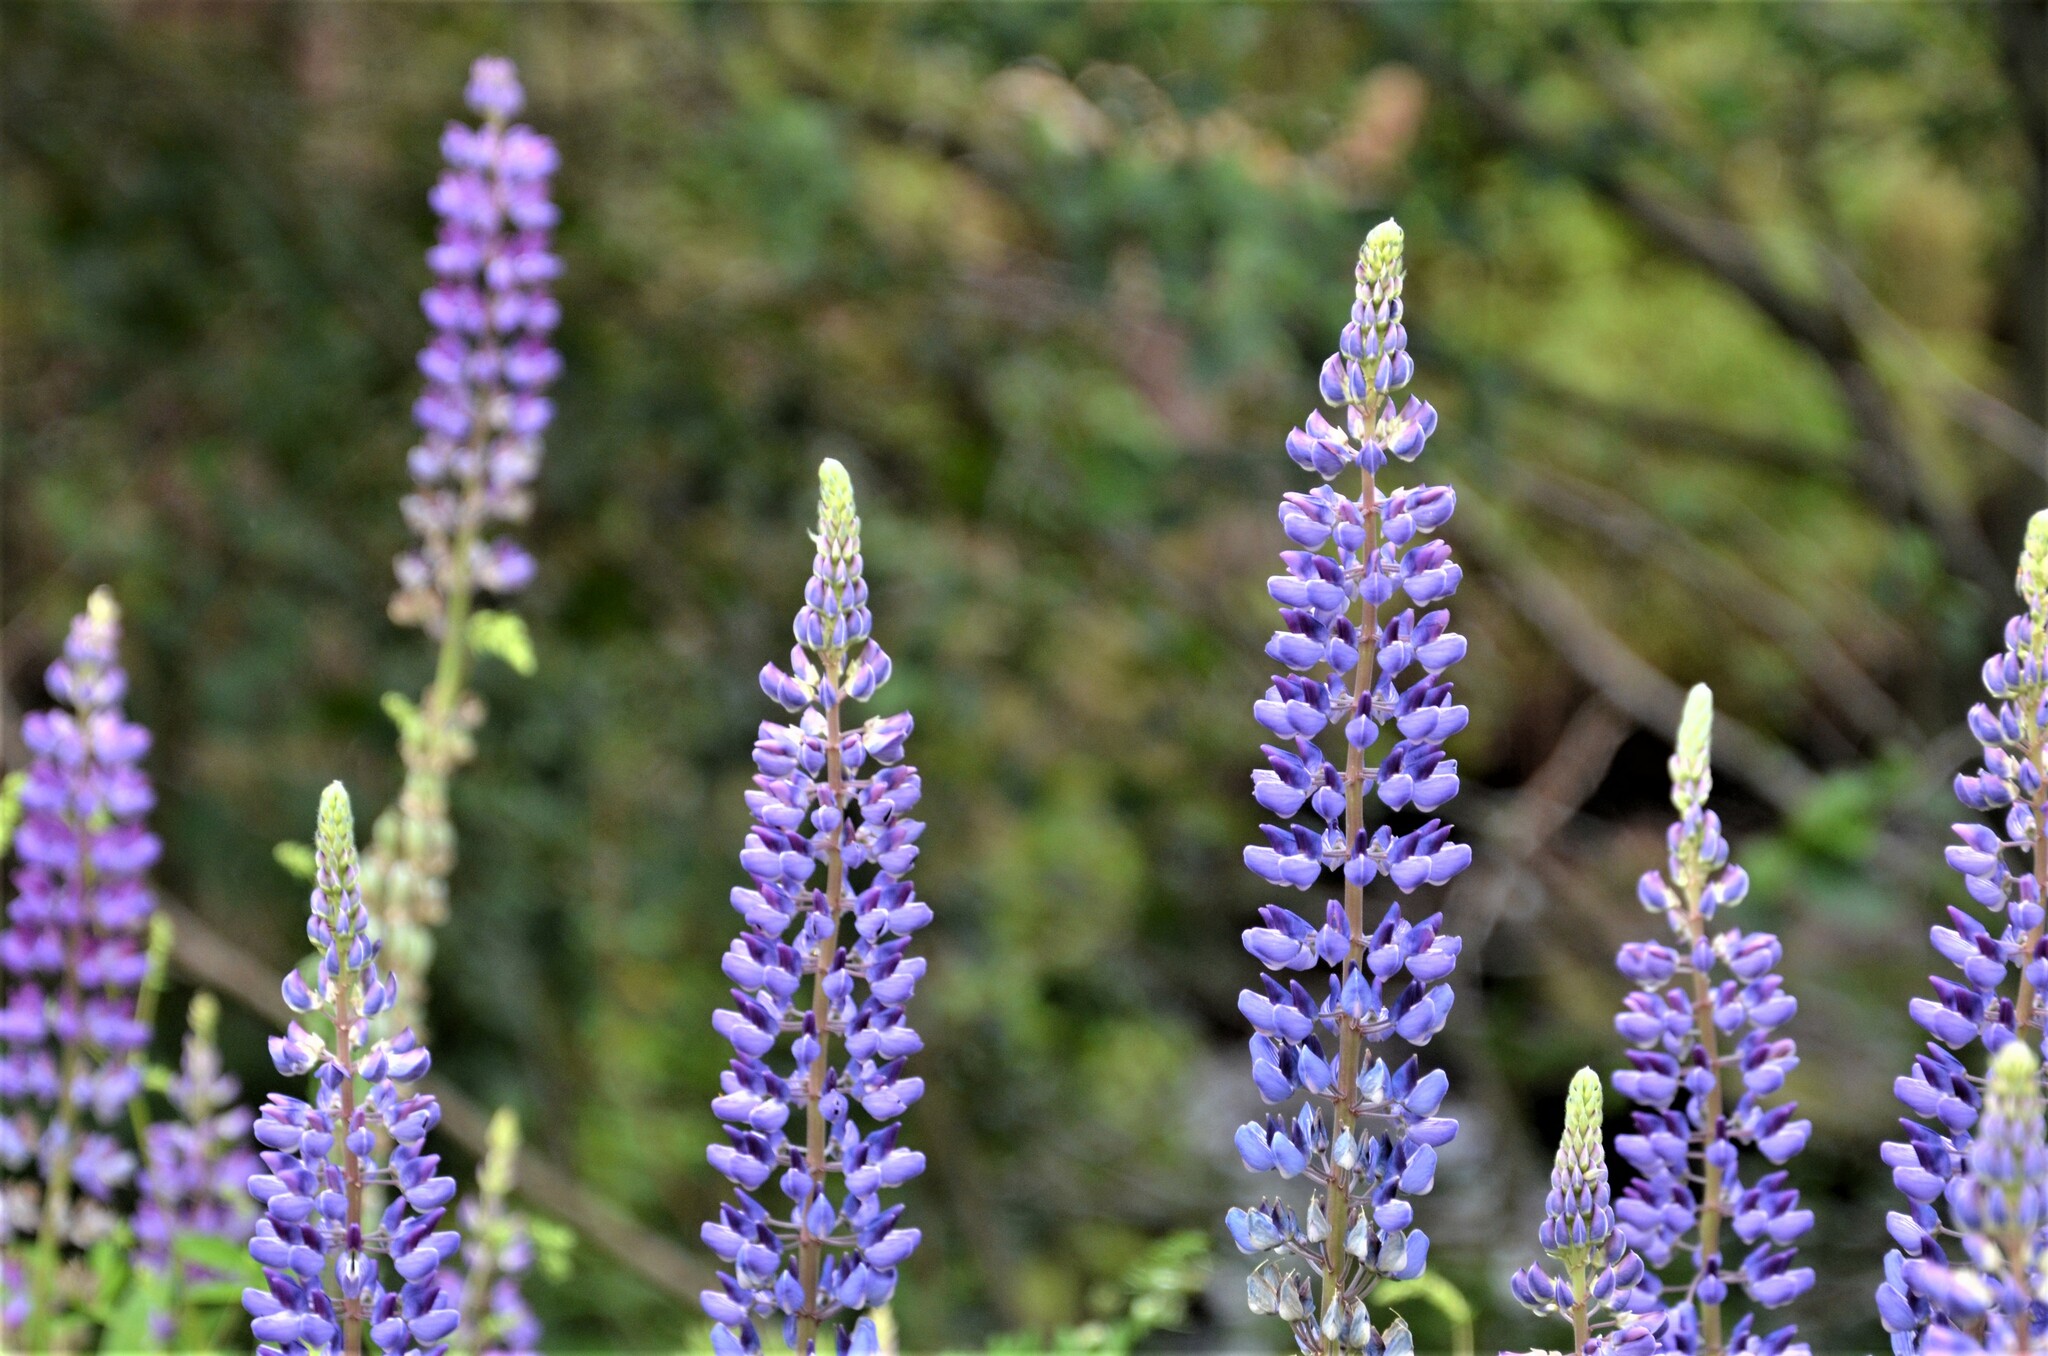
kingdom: Plantae
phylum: Tracheophyta
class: Magnoliopsida
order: Fabales
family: Fabaceae
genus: Lupinus
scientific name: Lupinus polyphyllus
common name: Garden lupin
